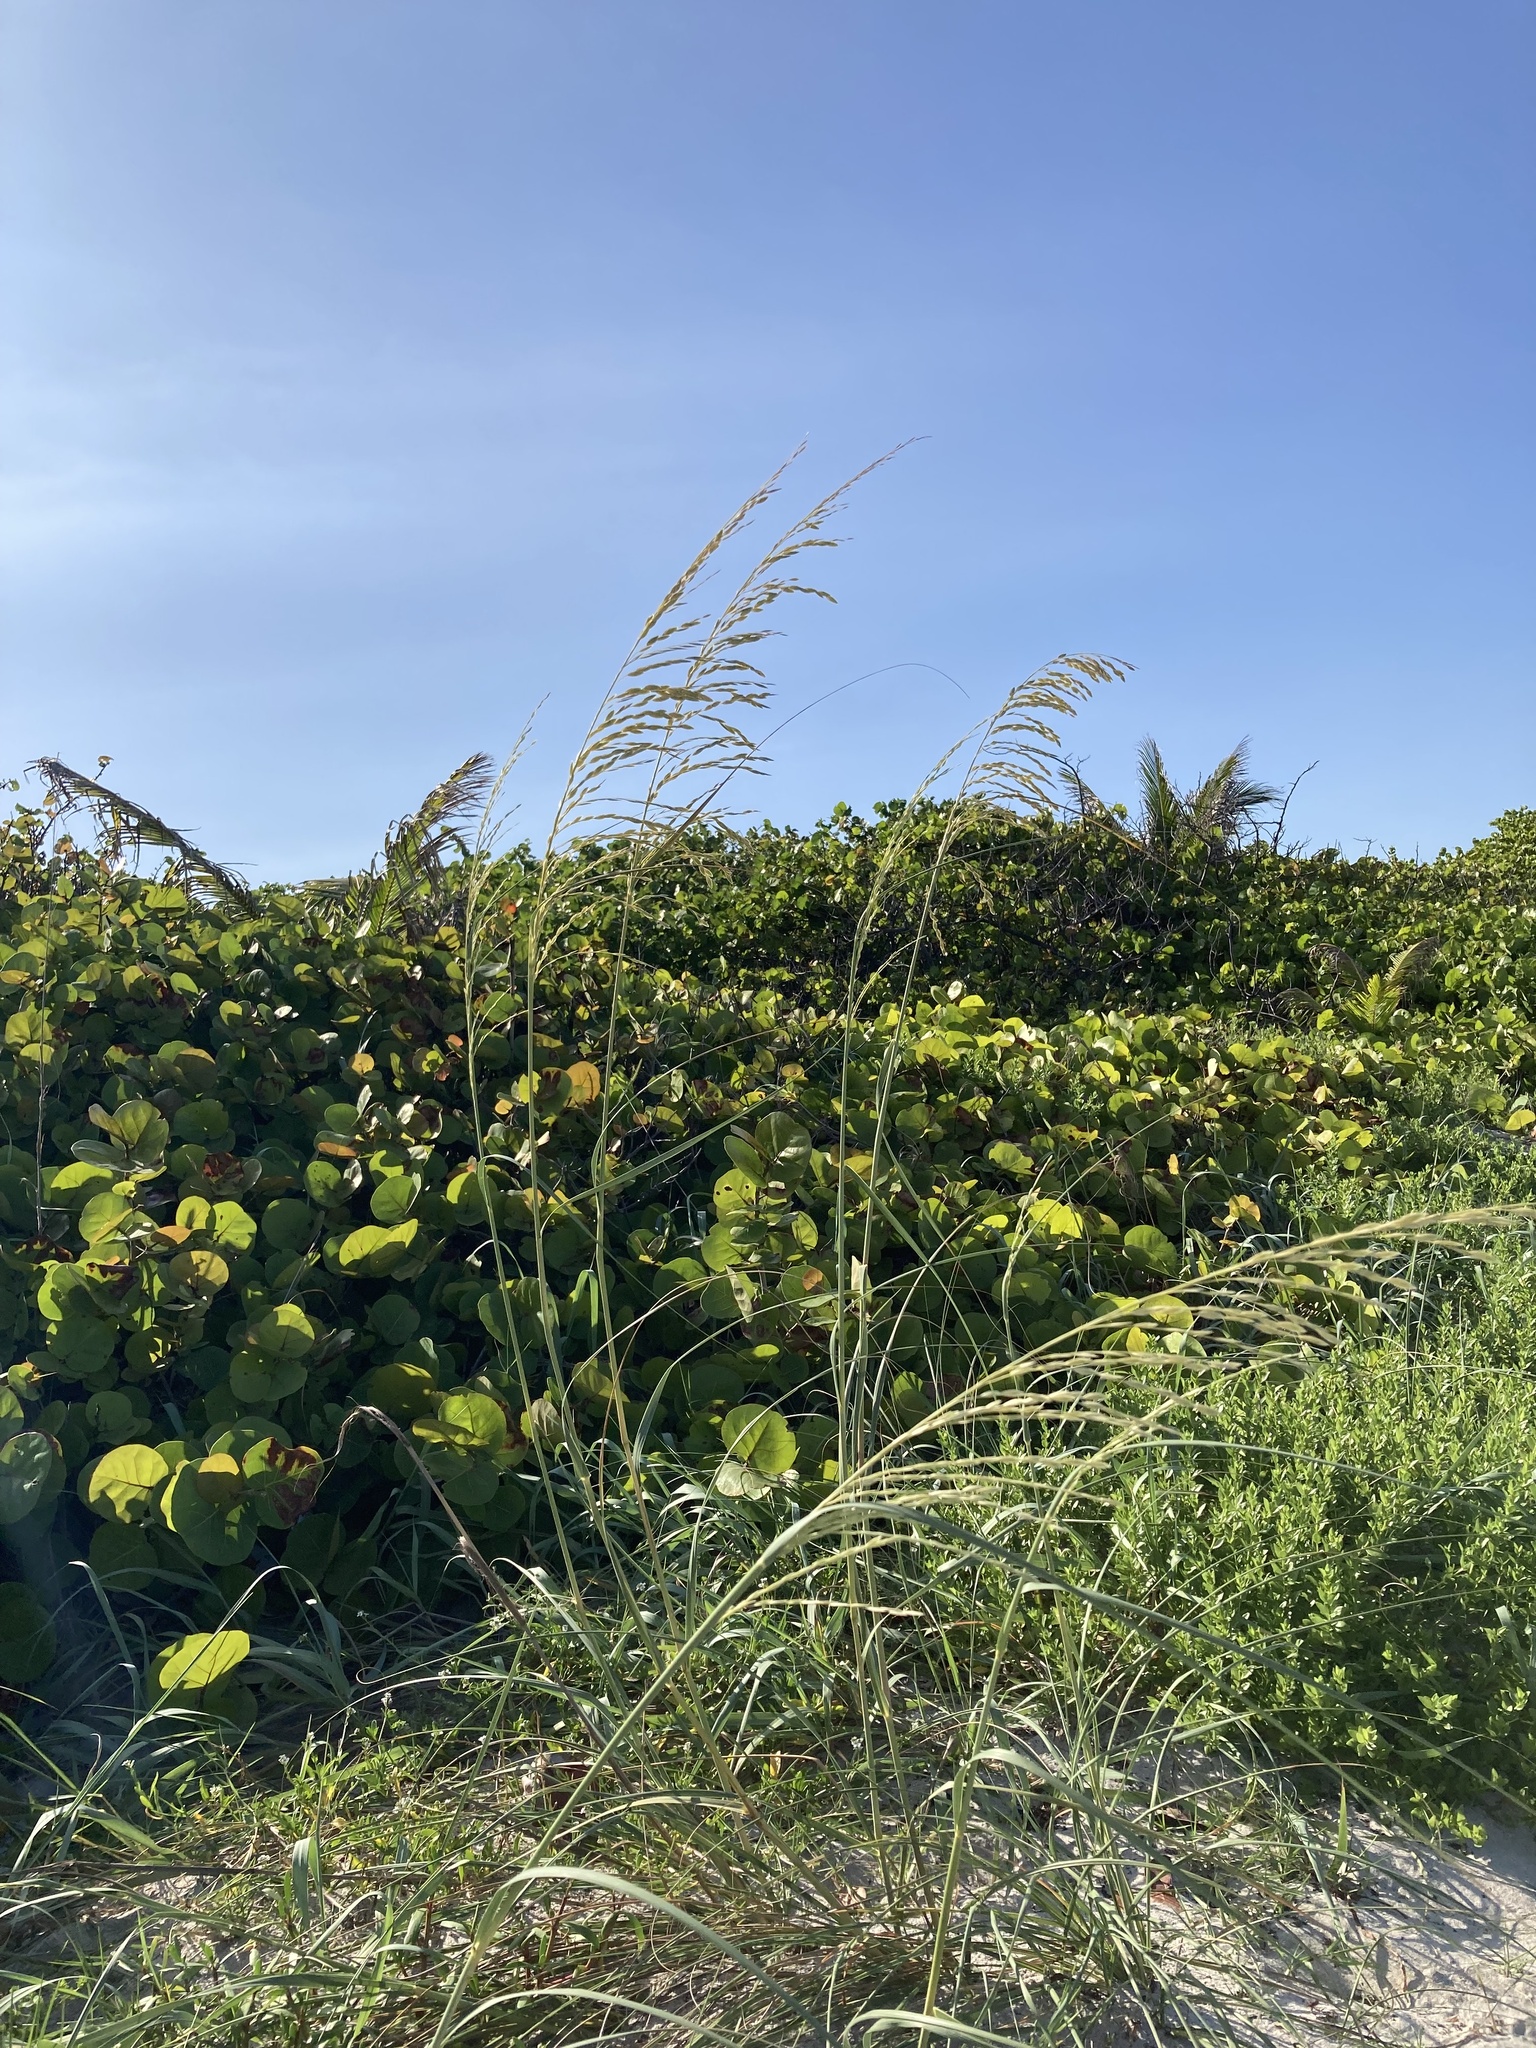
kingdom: Plantae
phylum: Tracheophyta
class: Liliopsida
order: Poales
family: Poaceae
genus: Uniola
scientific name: Uniola paniculata
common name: Seaside-oats
